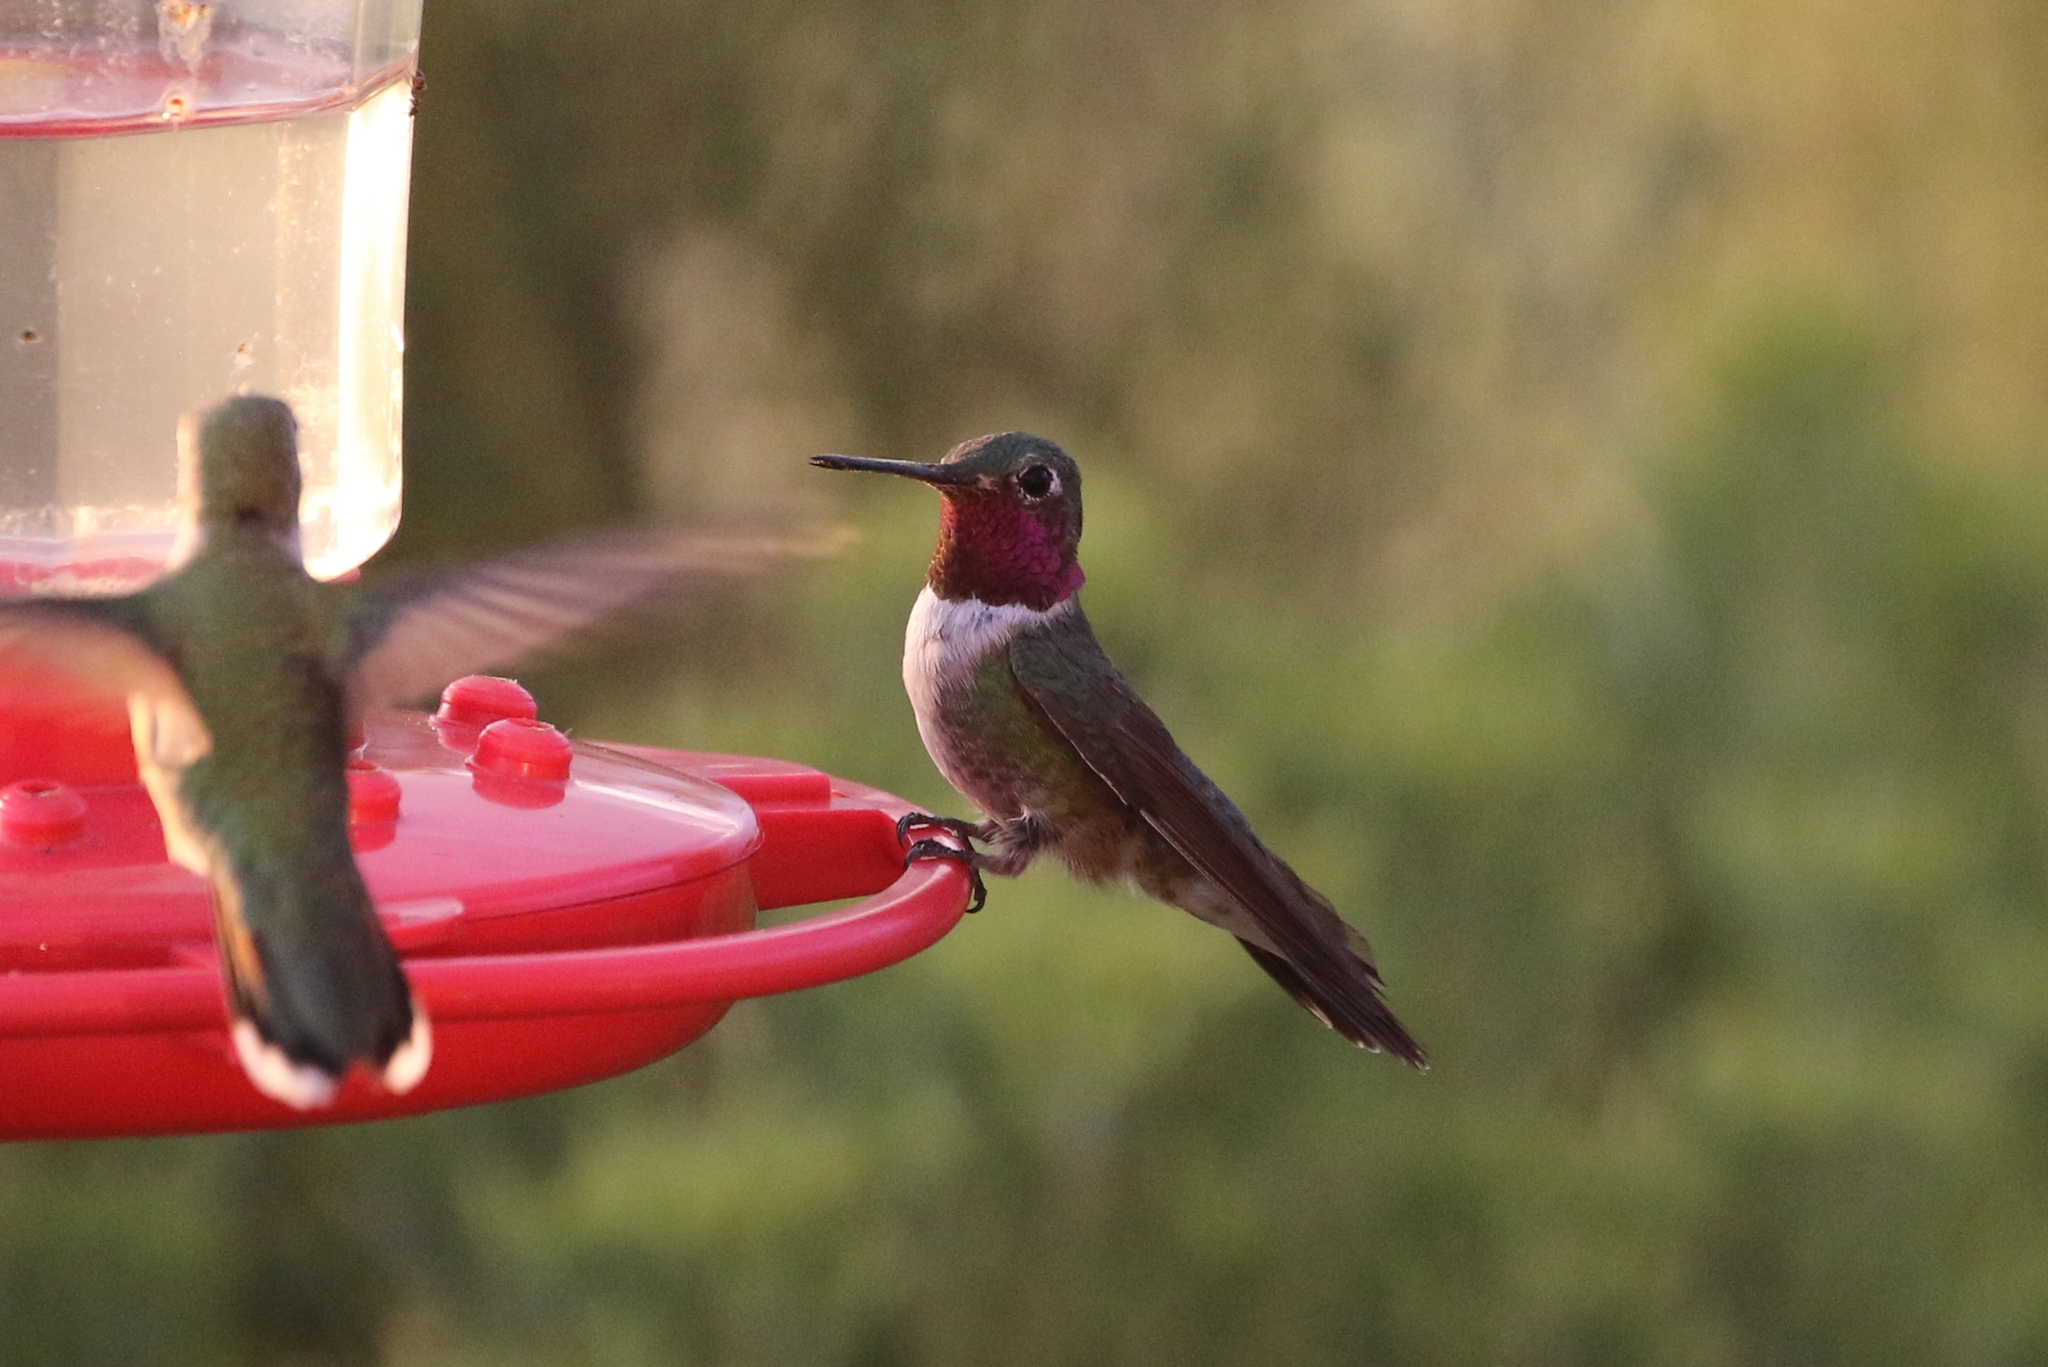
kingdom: Animalia
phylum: Chordata
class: Aves
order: Apodiformes
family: Trochilidae
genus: Selasphorus
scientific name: Selasphorus platycercus
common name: Broad-tailed hummingbird
